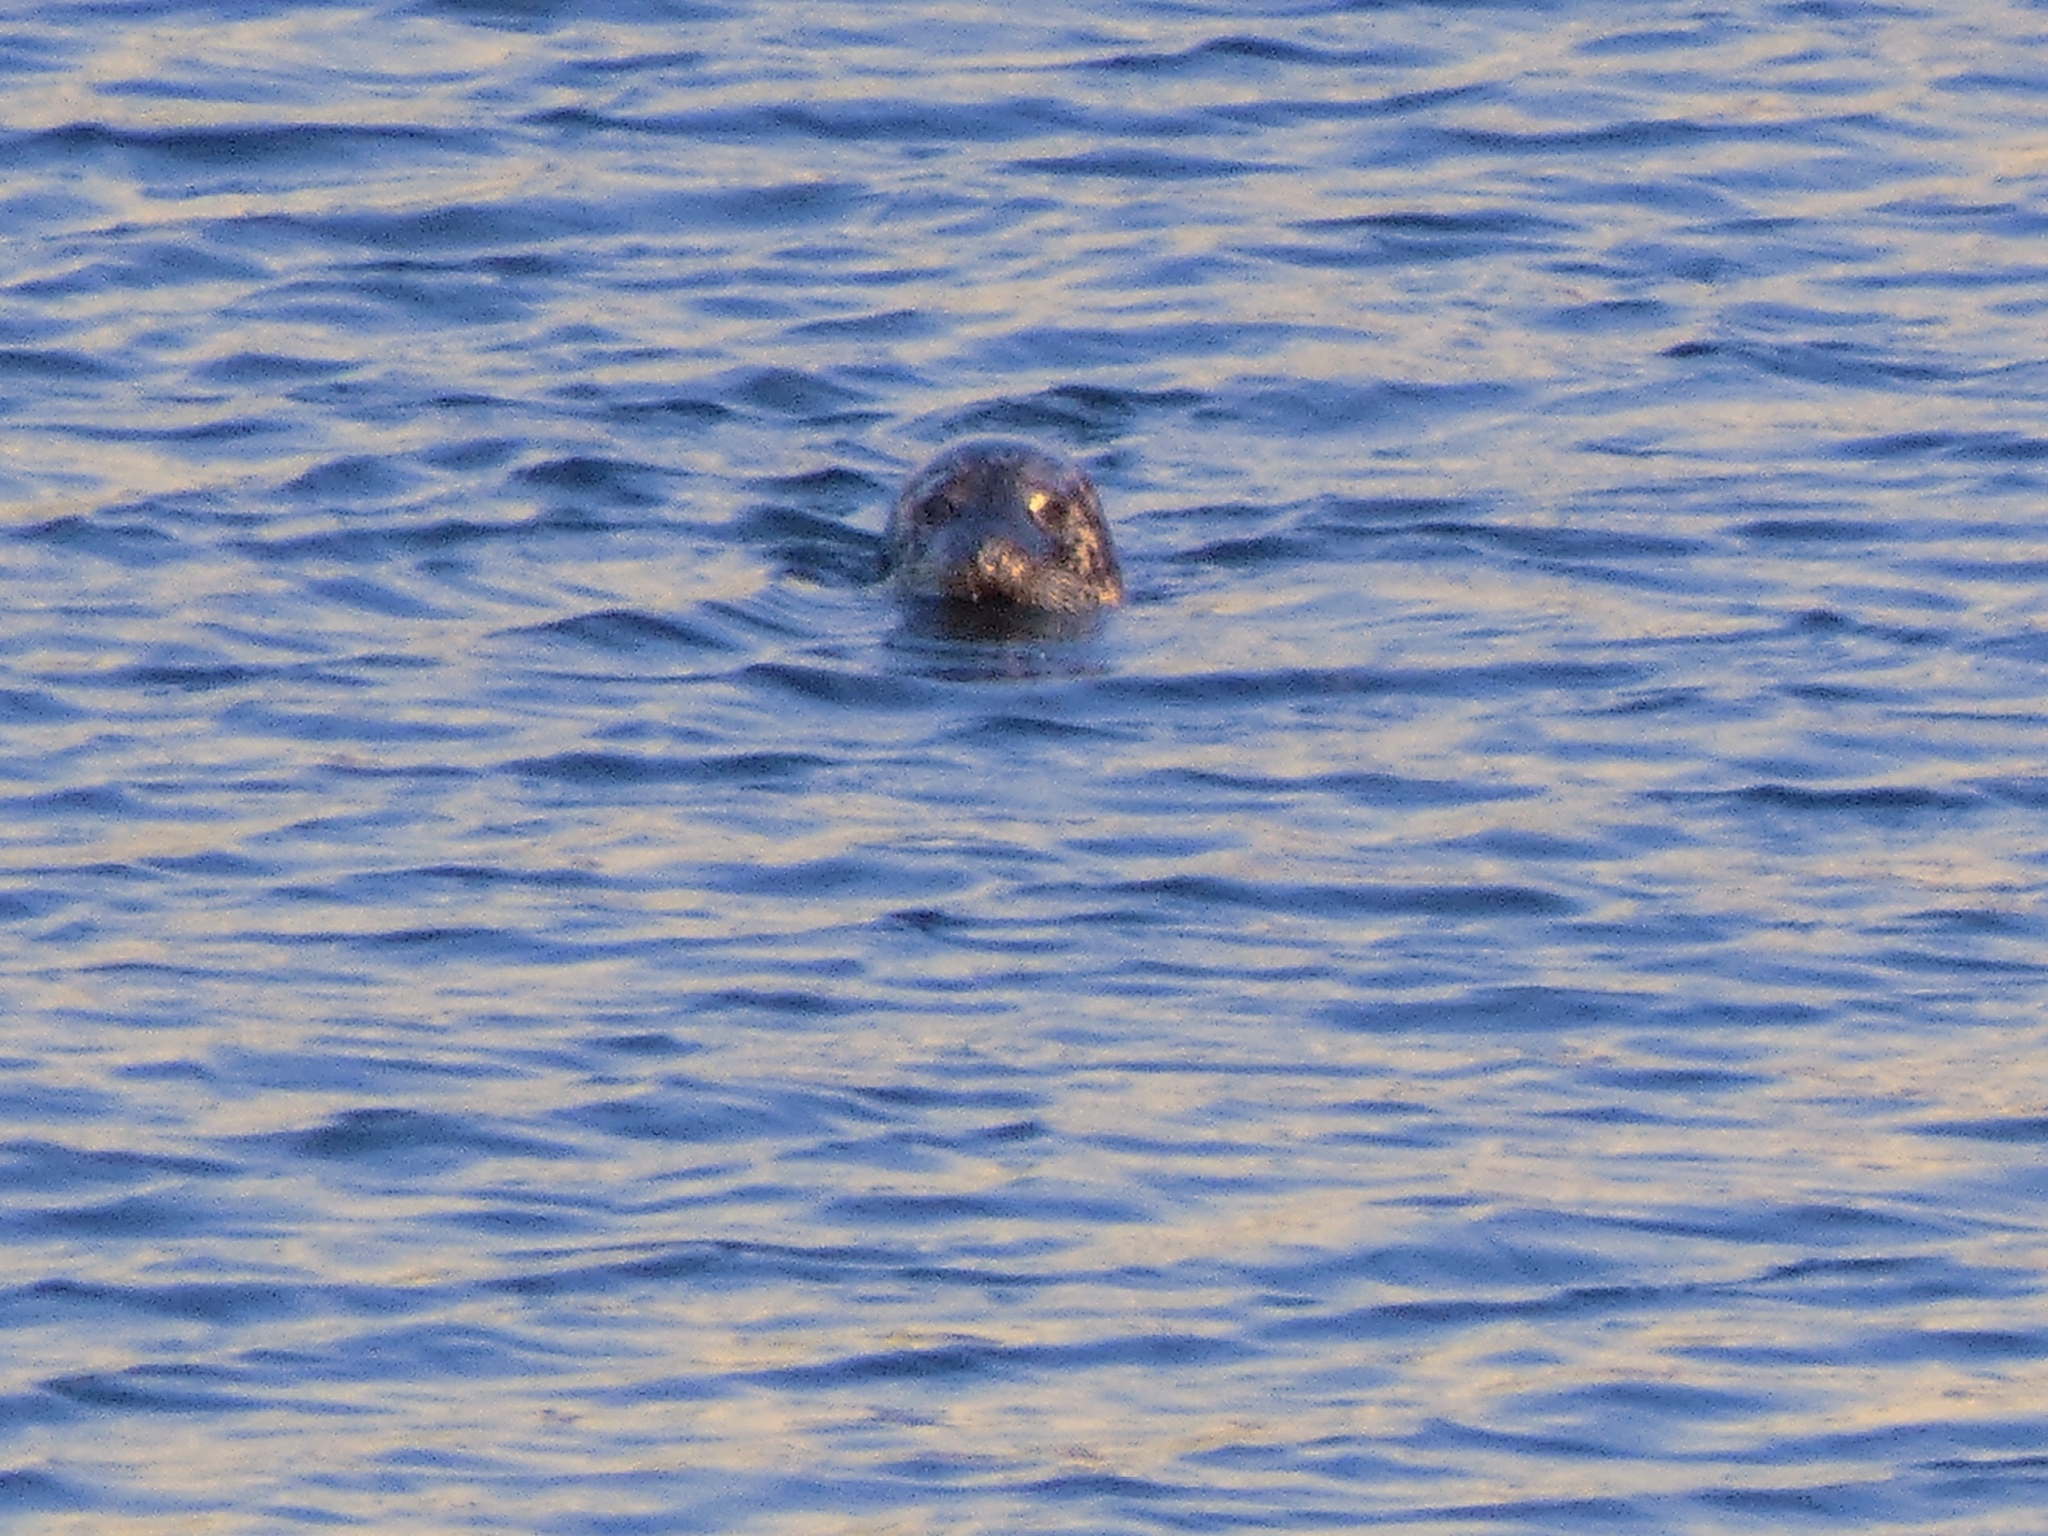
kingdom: Animalia
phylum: Chordata
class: Mammalia
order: Carnivora
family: Phocidae
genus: Halichoerus
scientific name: Halichoerus grypus
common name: Grey seal
